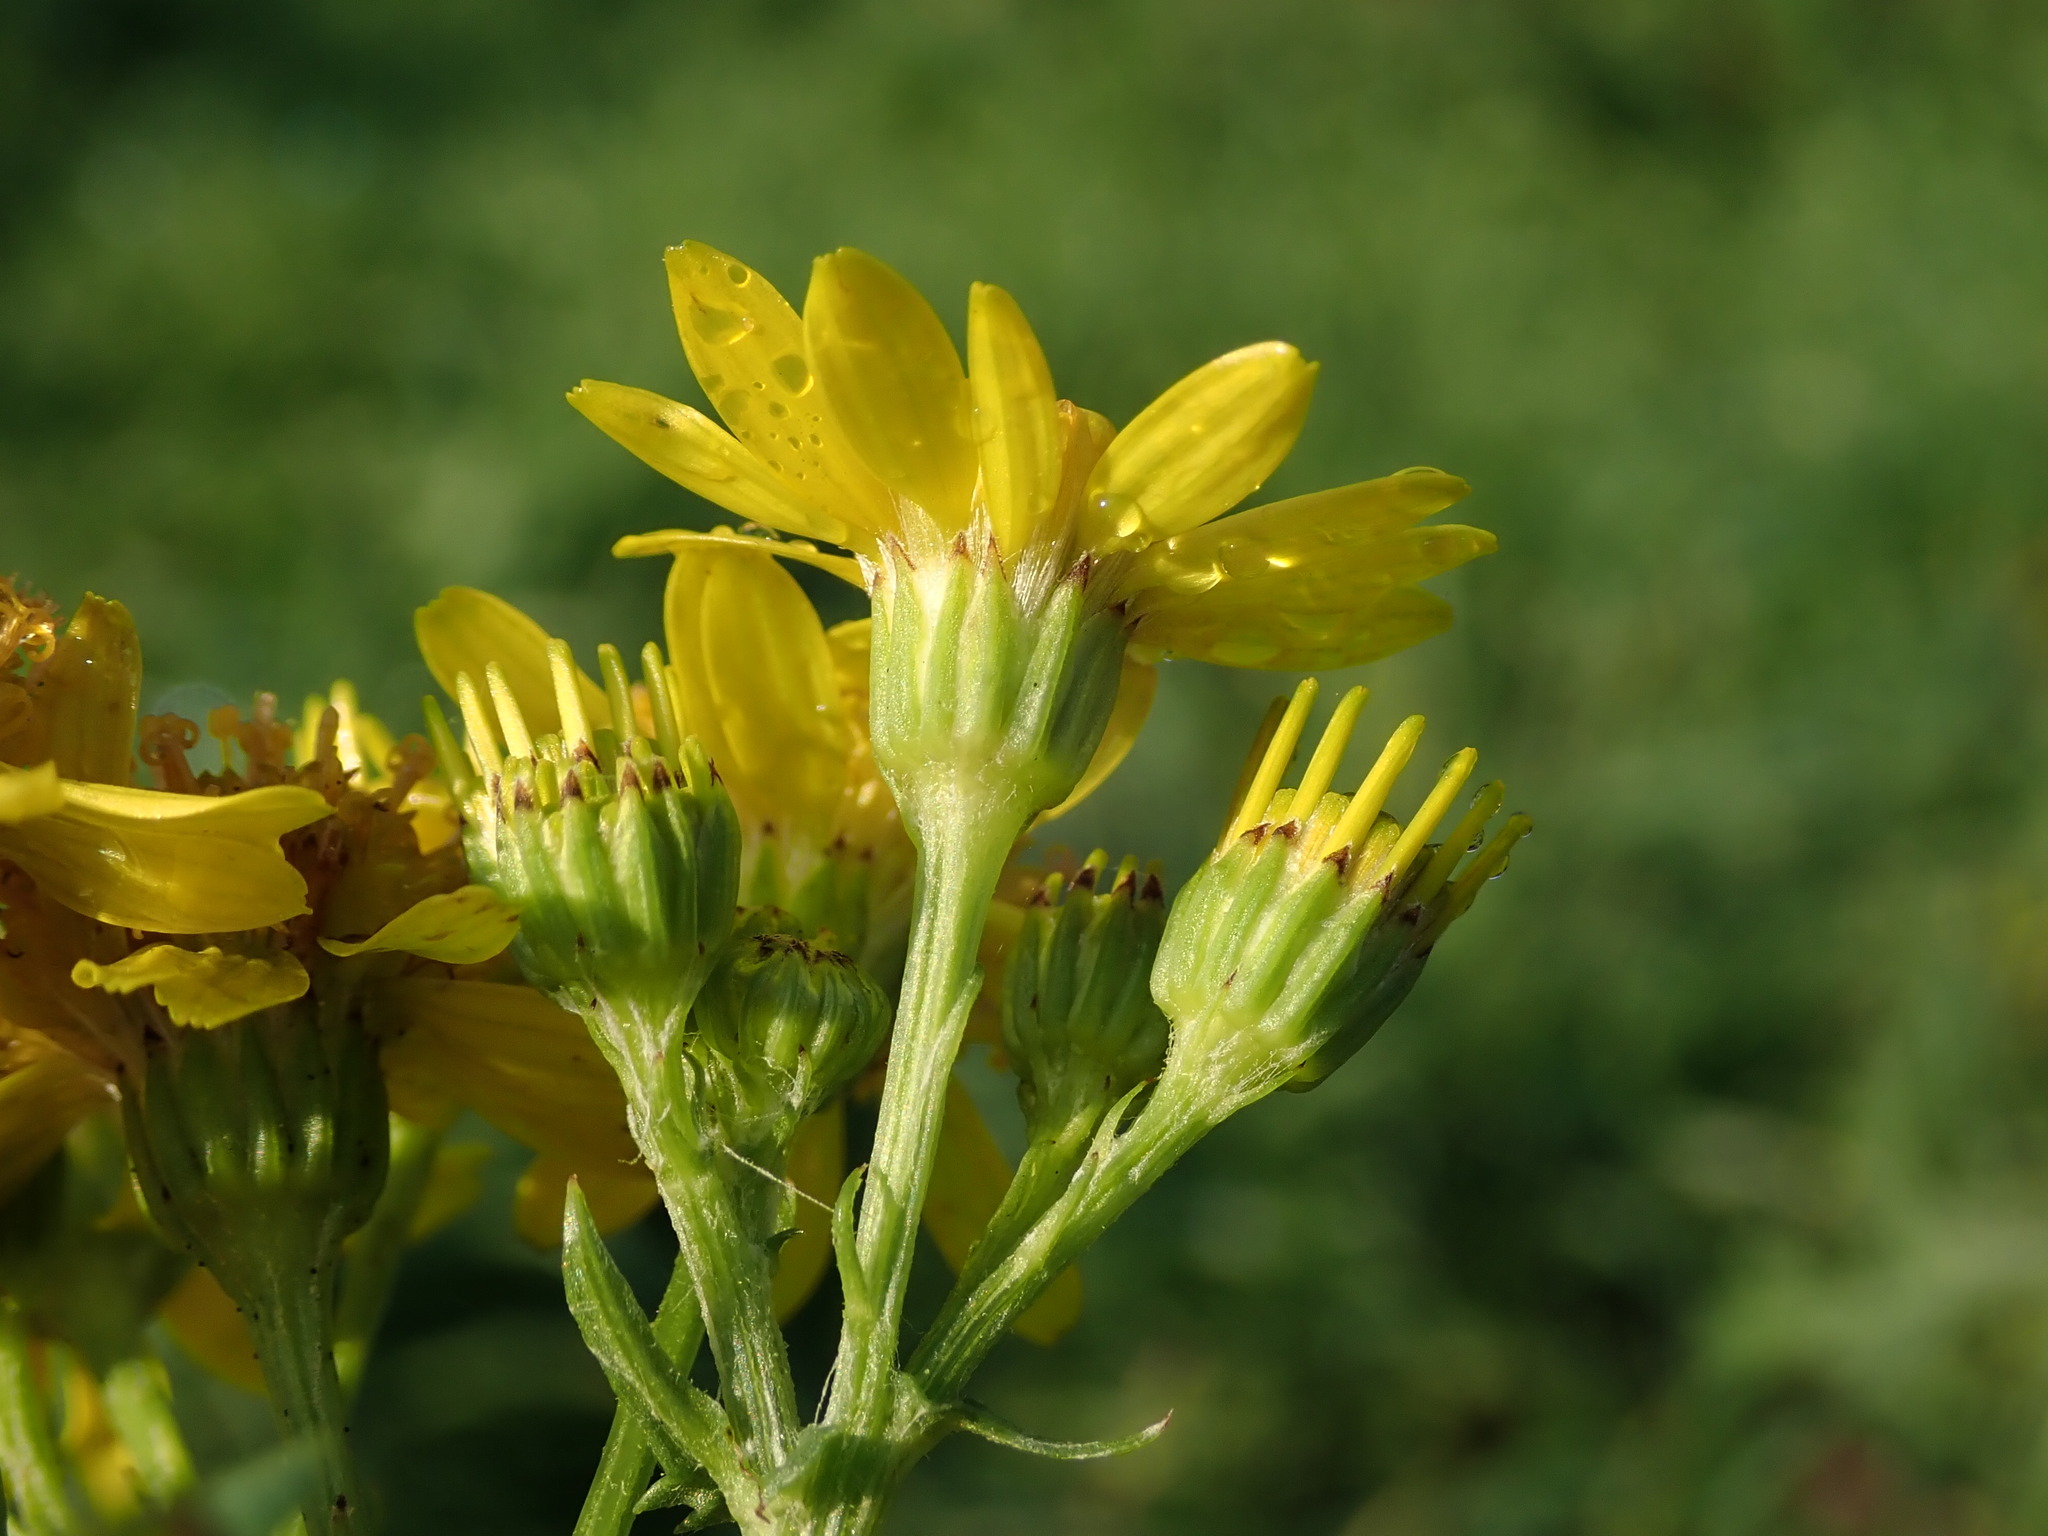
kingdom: Plantae
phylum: Tracheophyta
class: Magnoliopsida
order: Asterales
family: Asteraceae
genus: Jacobaea
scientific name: Jacobaea vulgaris
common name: Stinking willie
